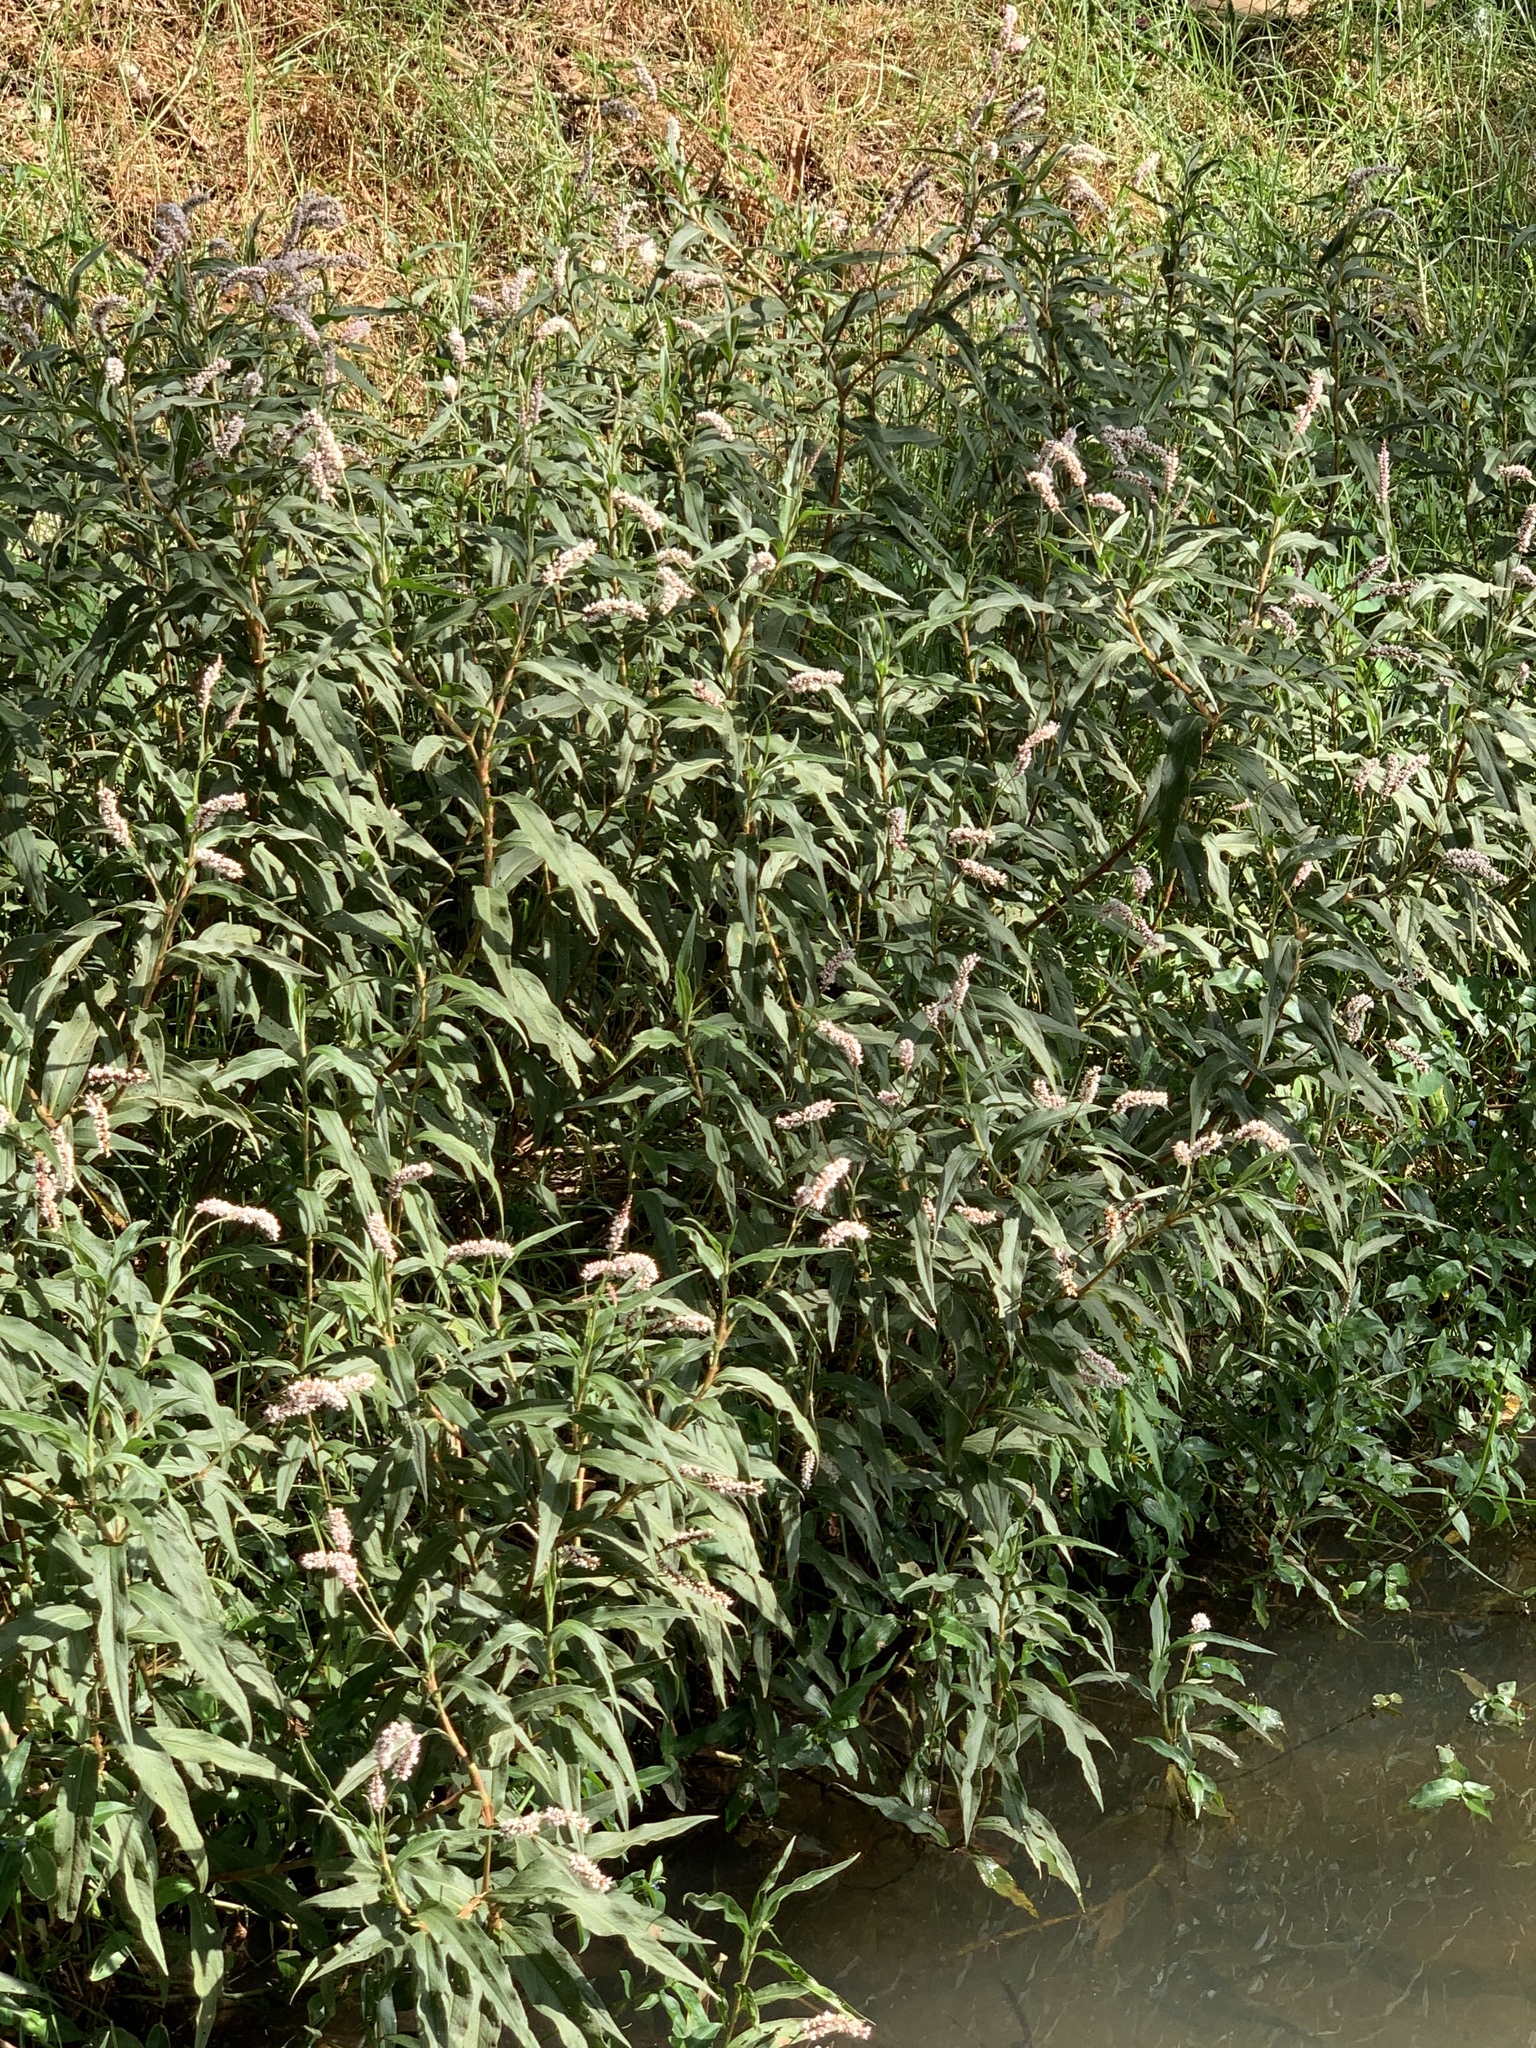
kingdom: Plantae
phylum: Tracheophyta
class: Magnoliopsida
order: Caryophyllales
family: Polygonaceae
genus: Persicaria
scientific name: Persicaria madagascariensis
